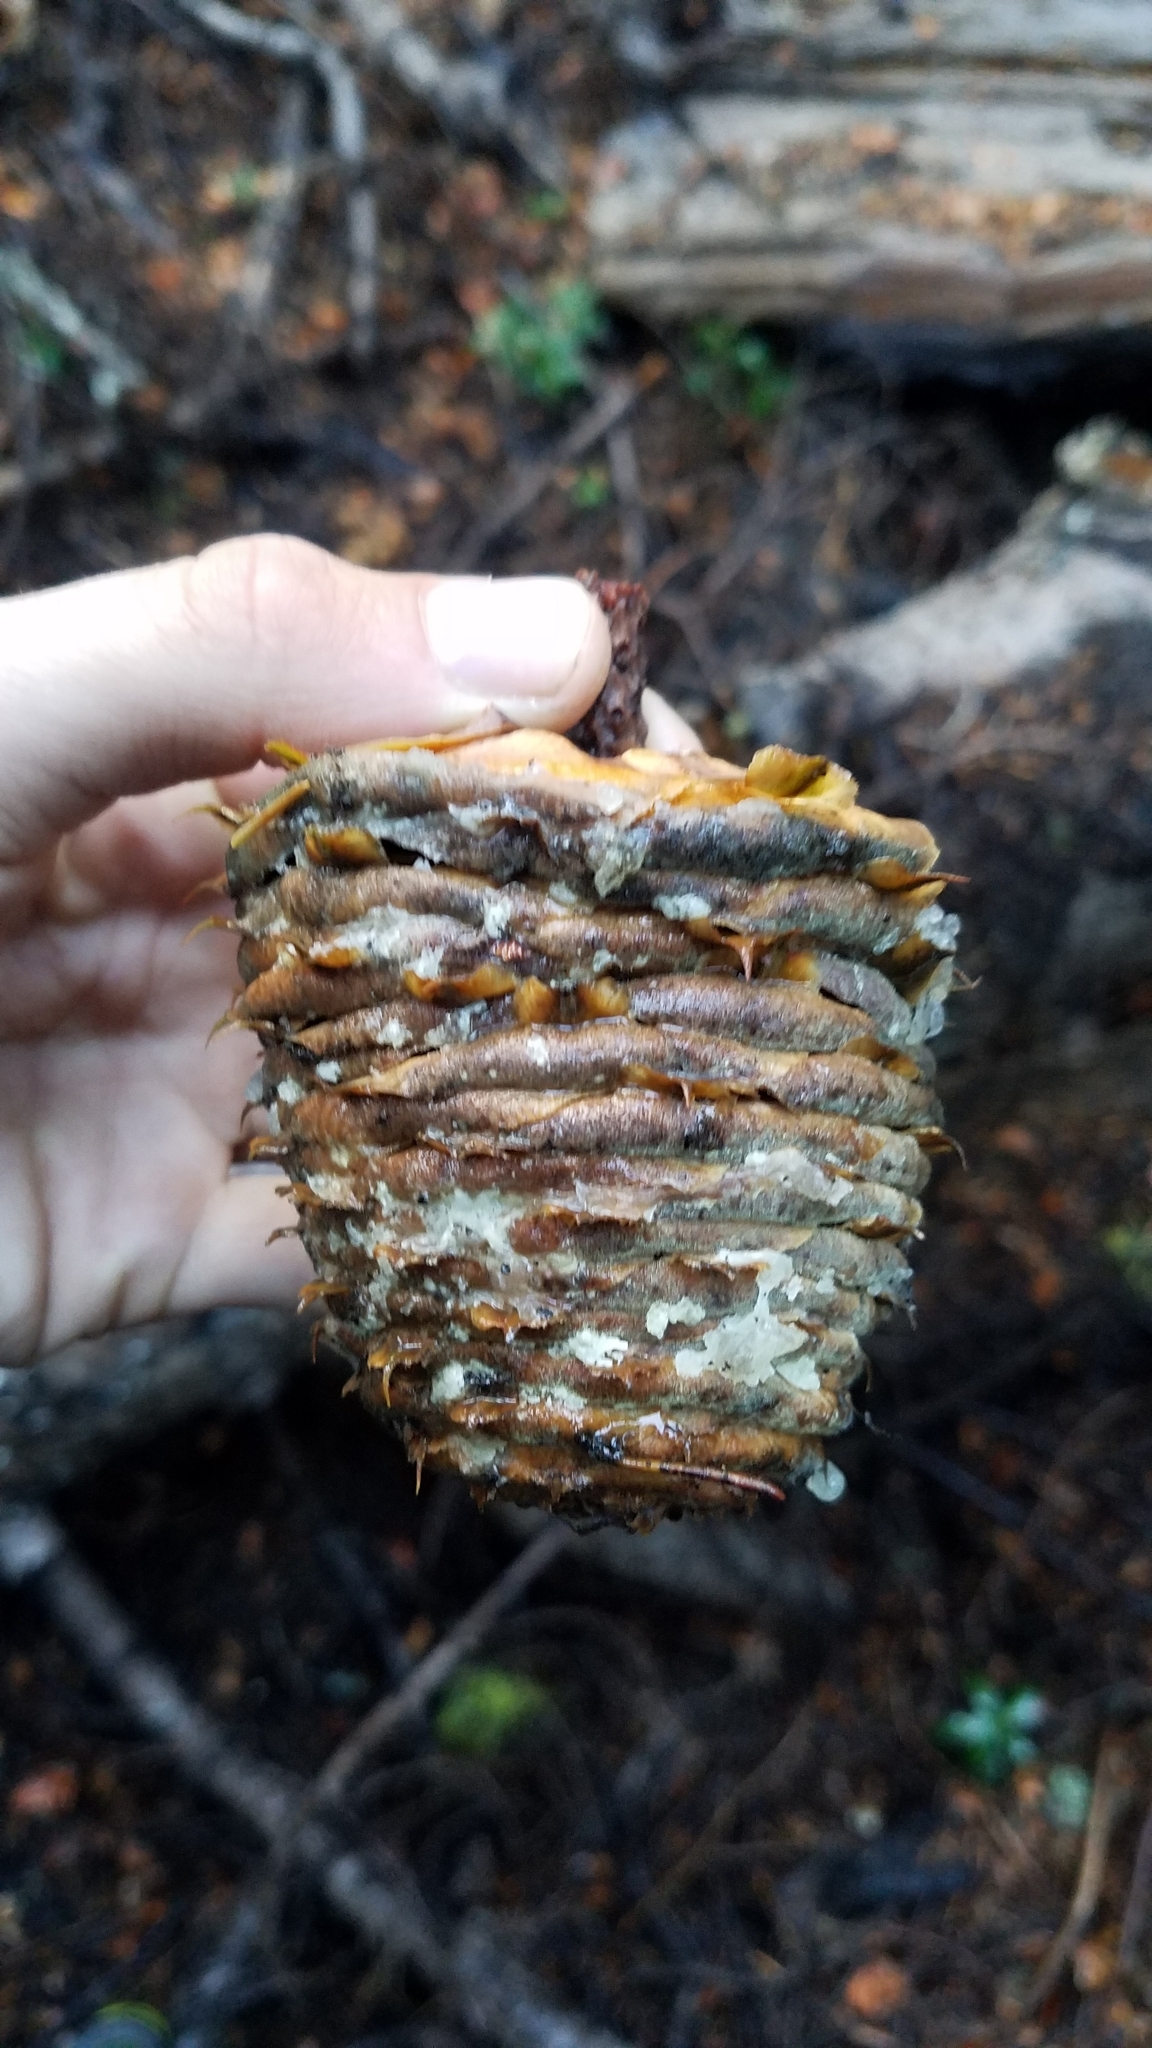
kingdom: Plantae
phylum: Tracheophyta
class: Pinopsida
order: Pinales
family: Pinaceae
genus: Abies
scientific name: Abies magnifica bis
